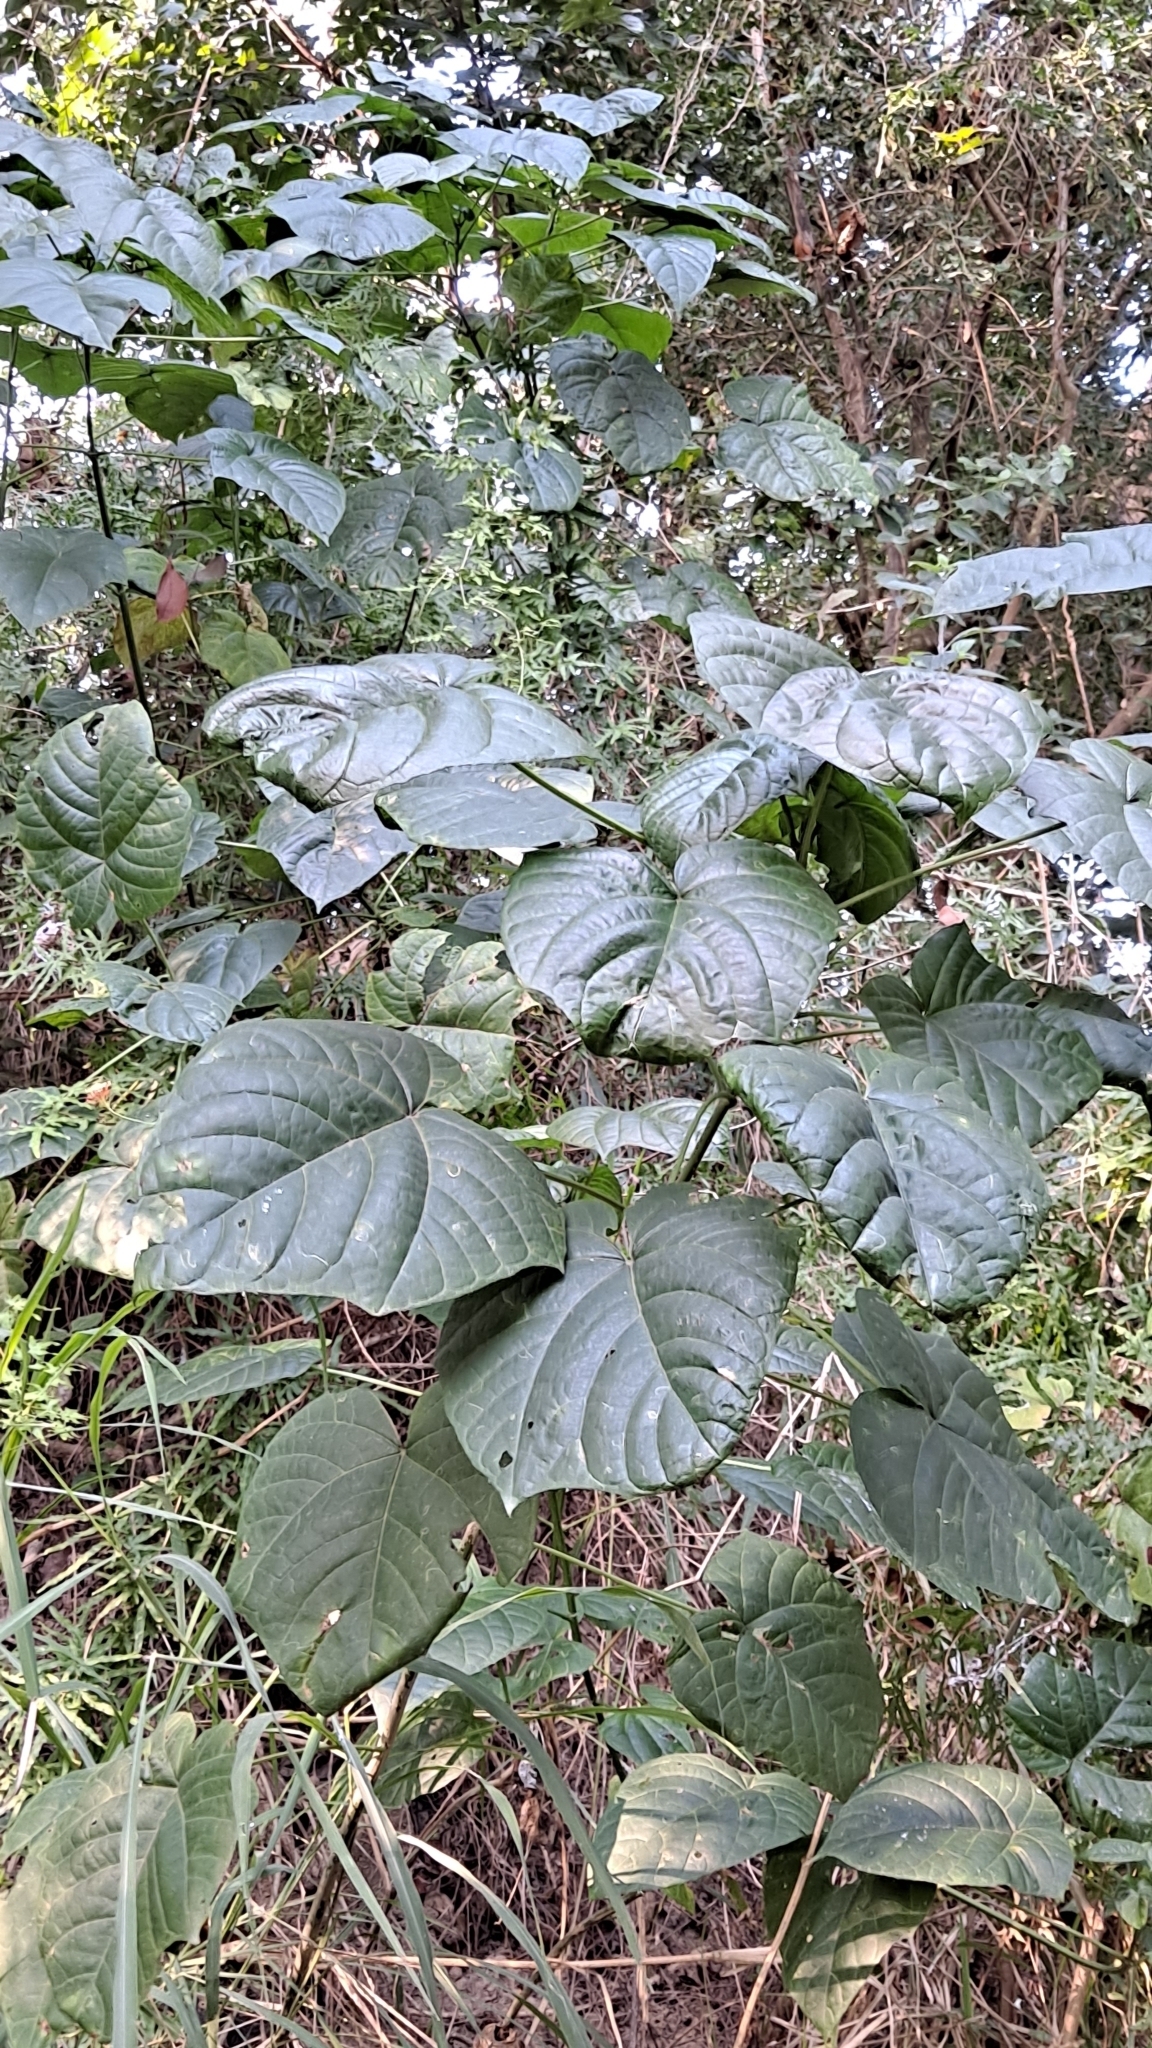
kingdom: Plantae
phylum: Tracheophyta
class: Magnoliopsida
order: Lamiales
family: Lamiaceae
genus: Clerodendrum
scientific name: Clerodendrum japonicum
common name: Japanese glorybower
